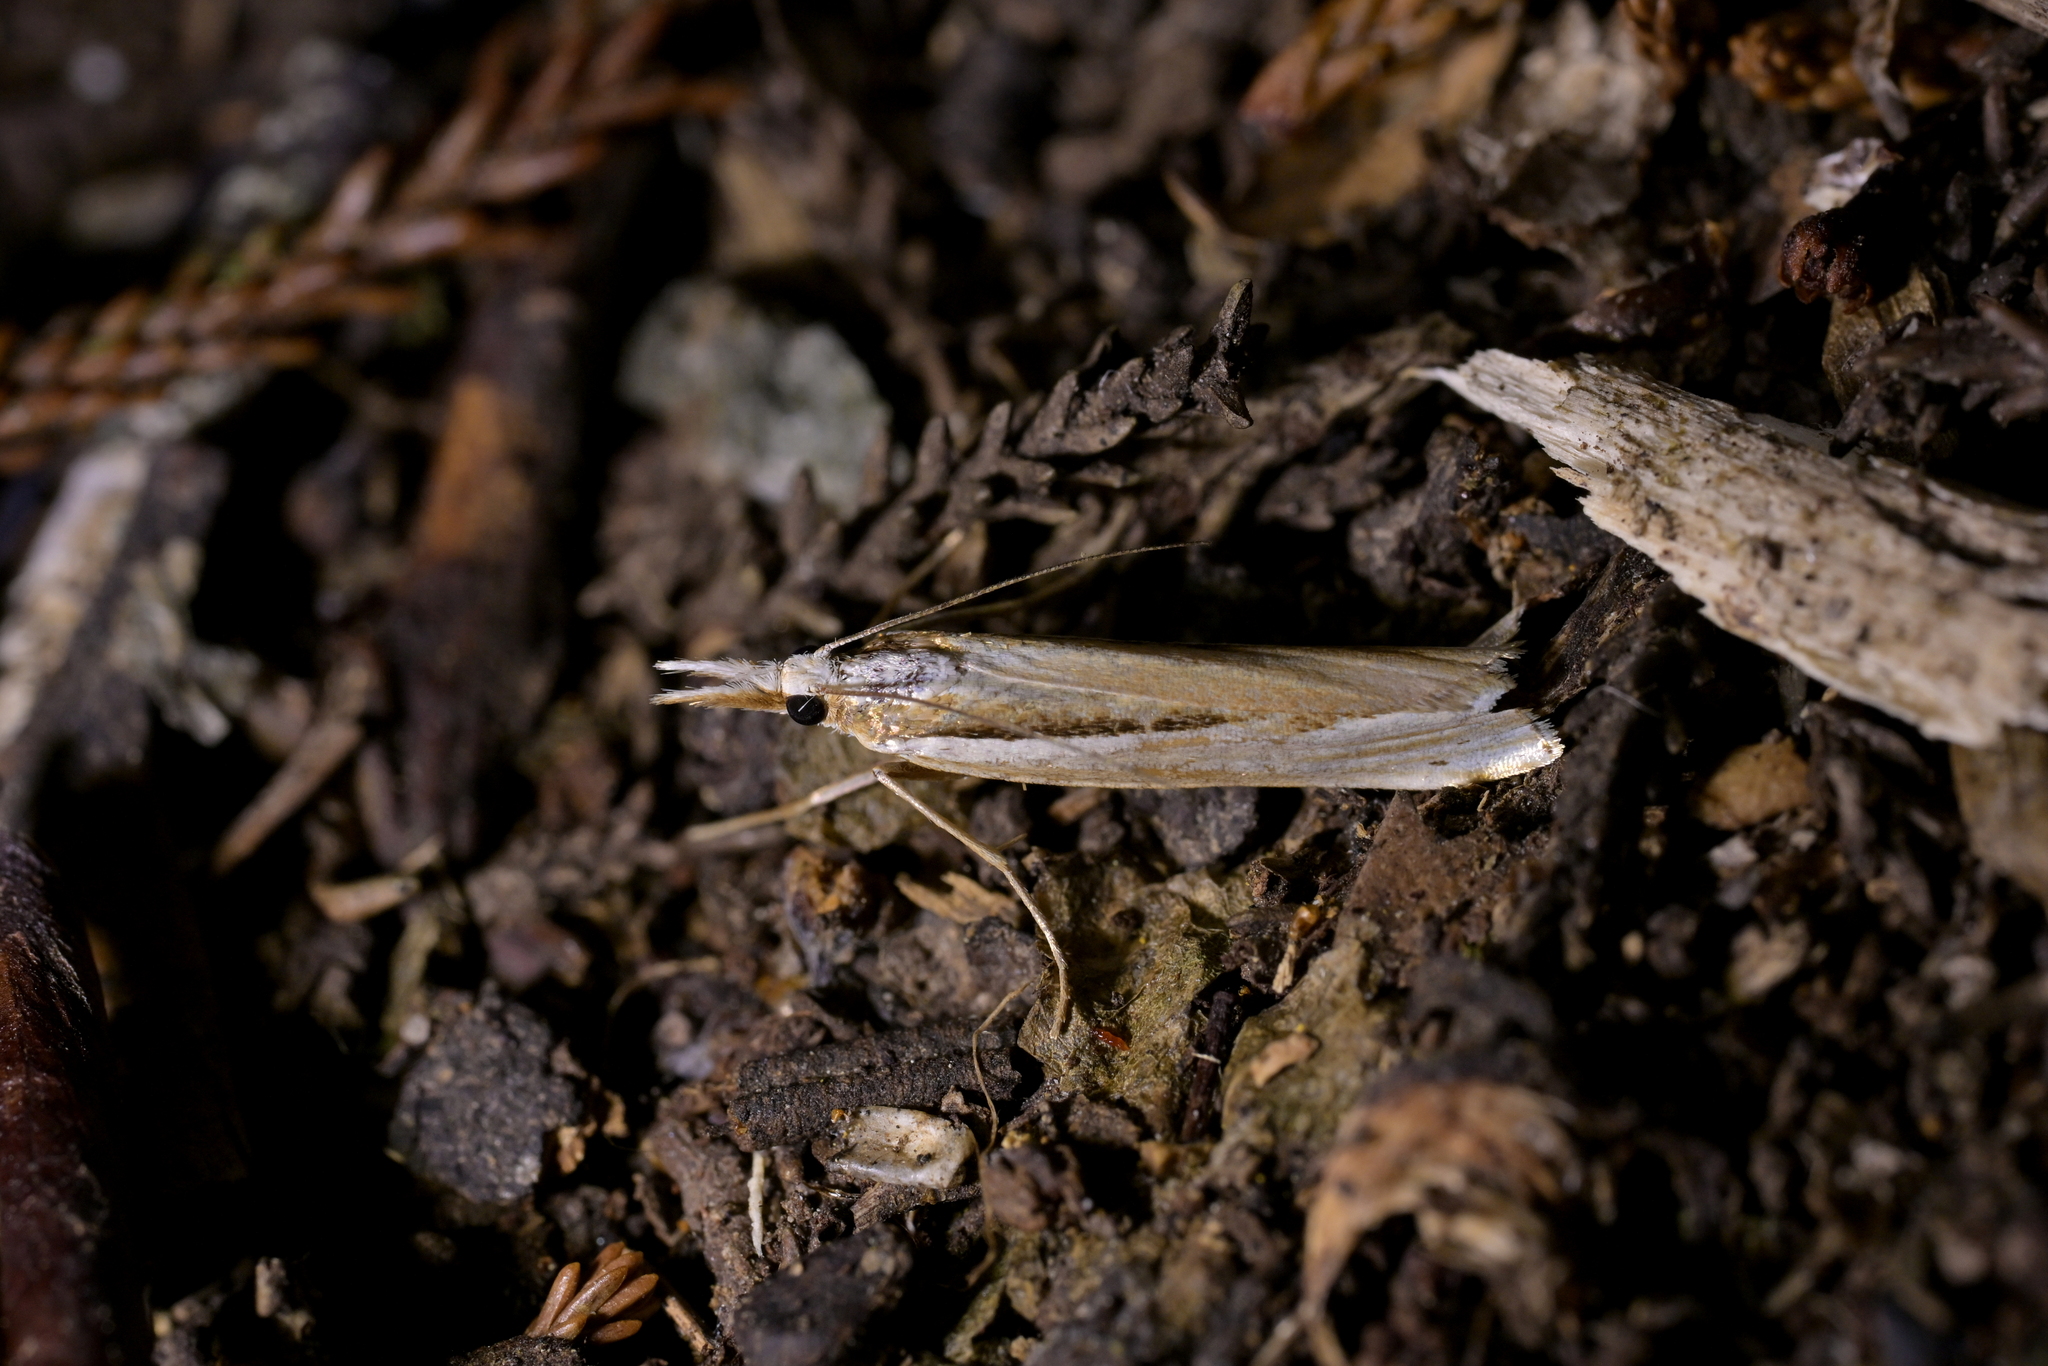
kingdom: Animalia
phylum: Arthropoda
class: Insecta
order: Lepidoptera
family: Crambidae
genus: Orocrambus
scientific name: Orocrambus ramosellus
